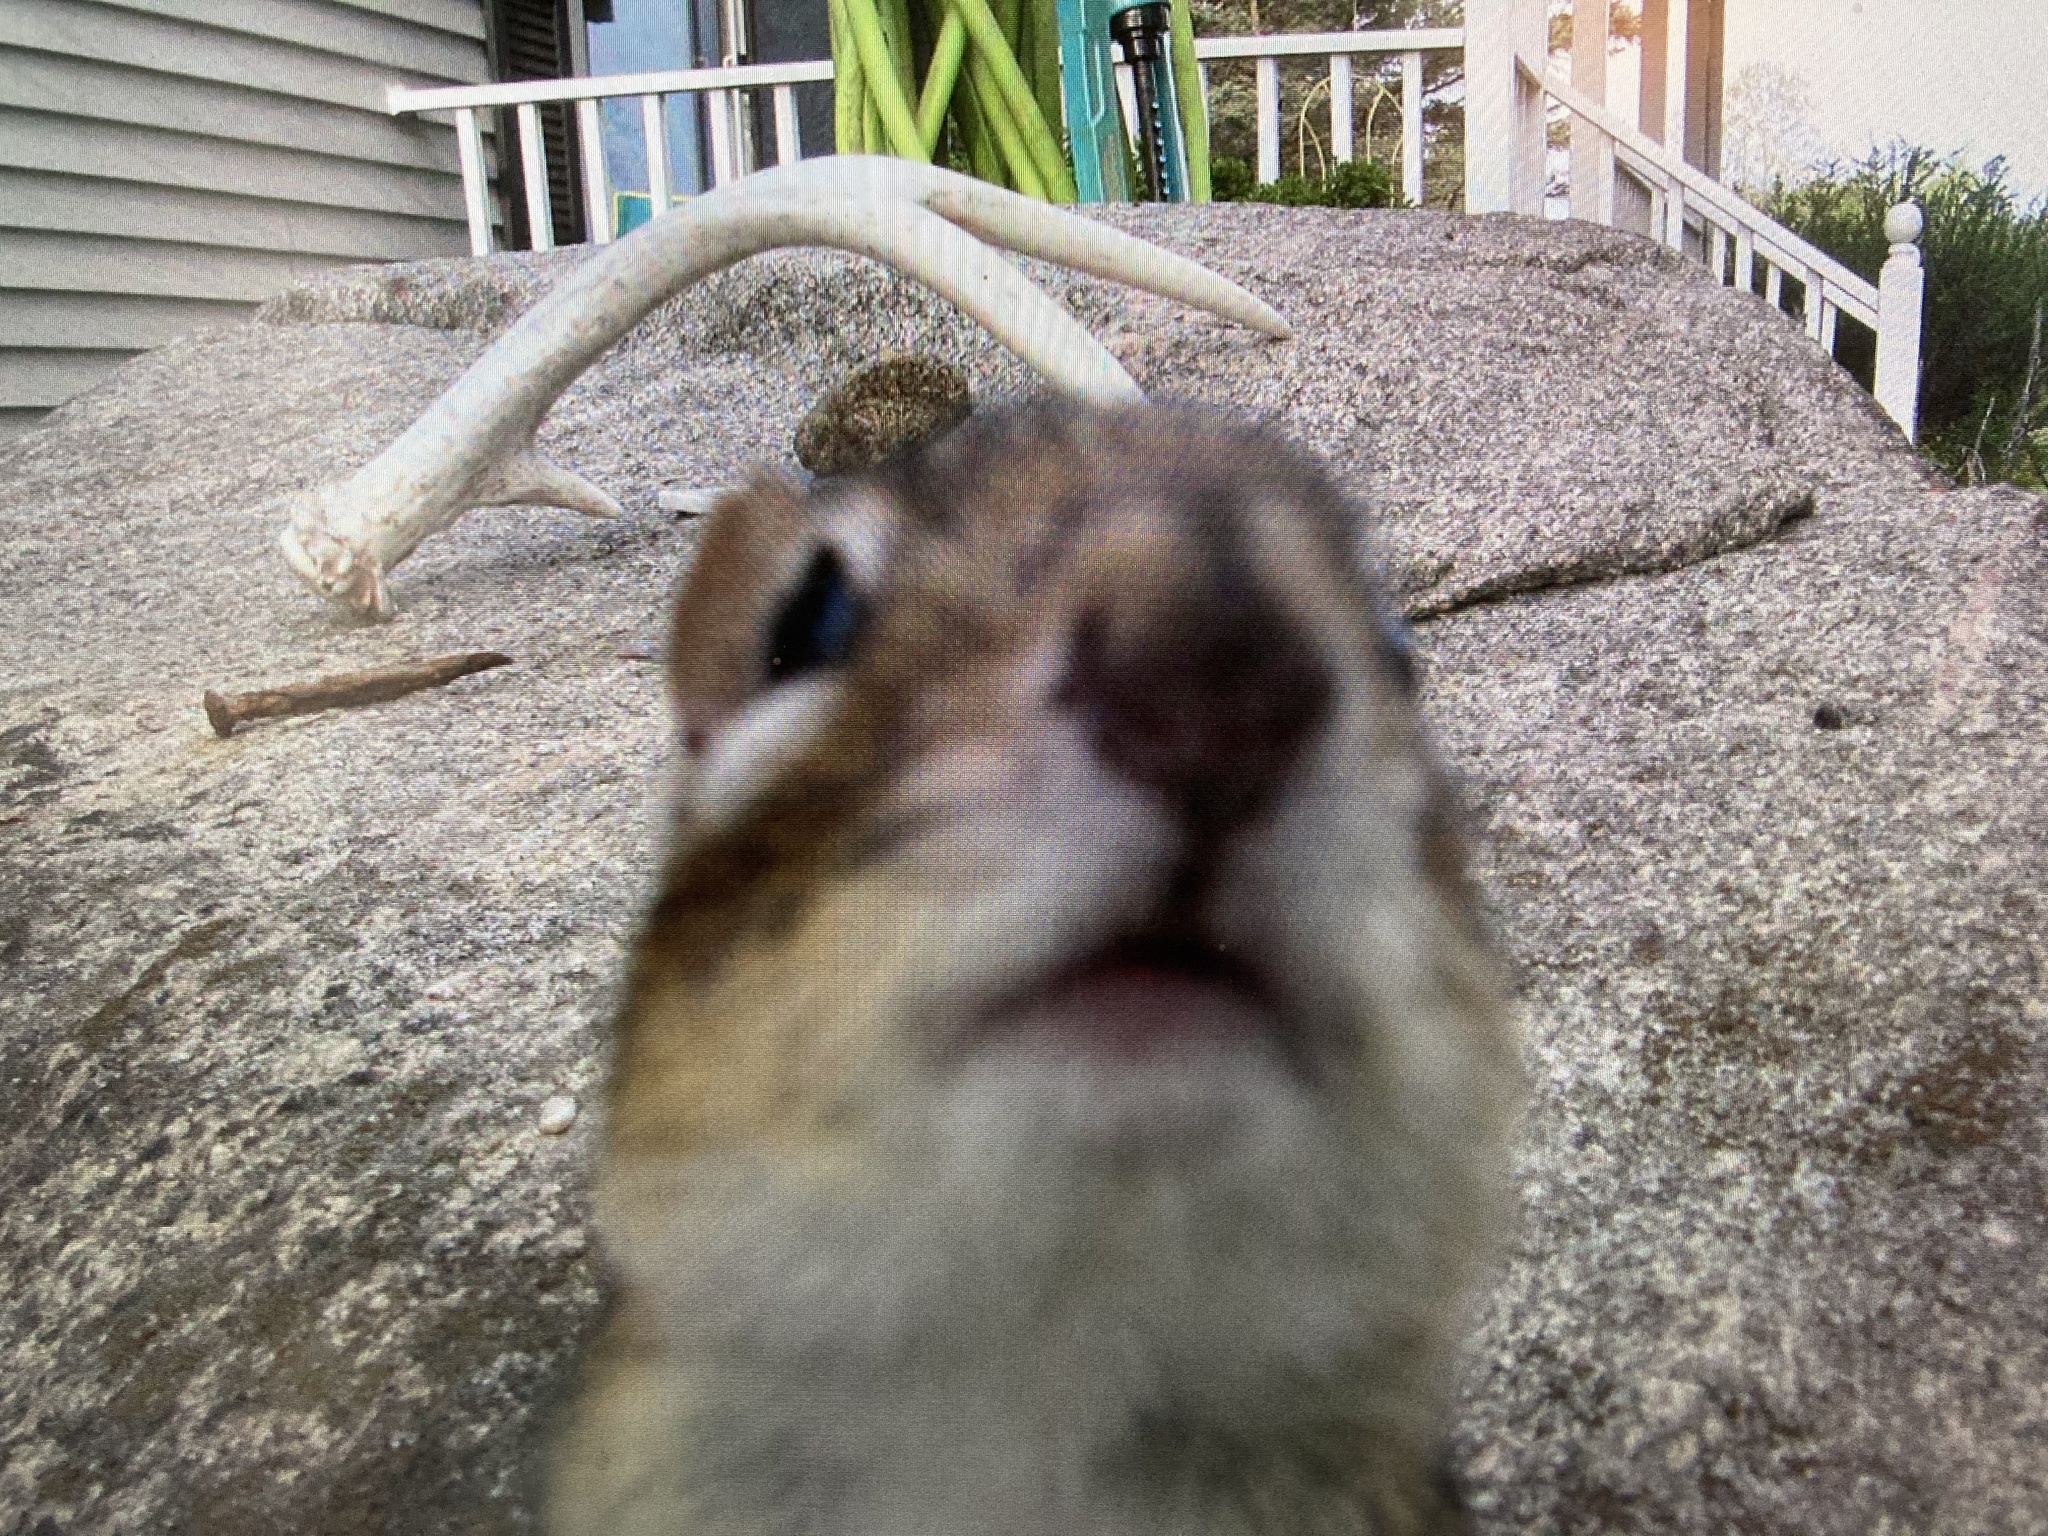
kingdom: Animalia
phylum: Chordata
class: Mammalia
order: Rodentia
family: Sciuridae
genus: Tamias
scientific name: Tamias striatus
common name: Eastern chipmunk
